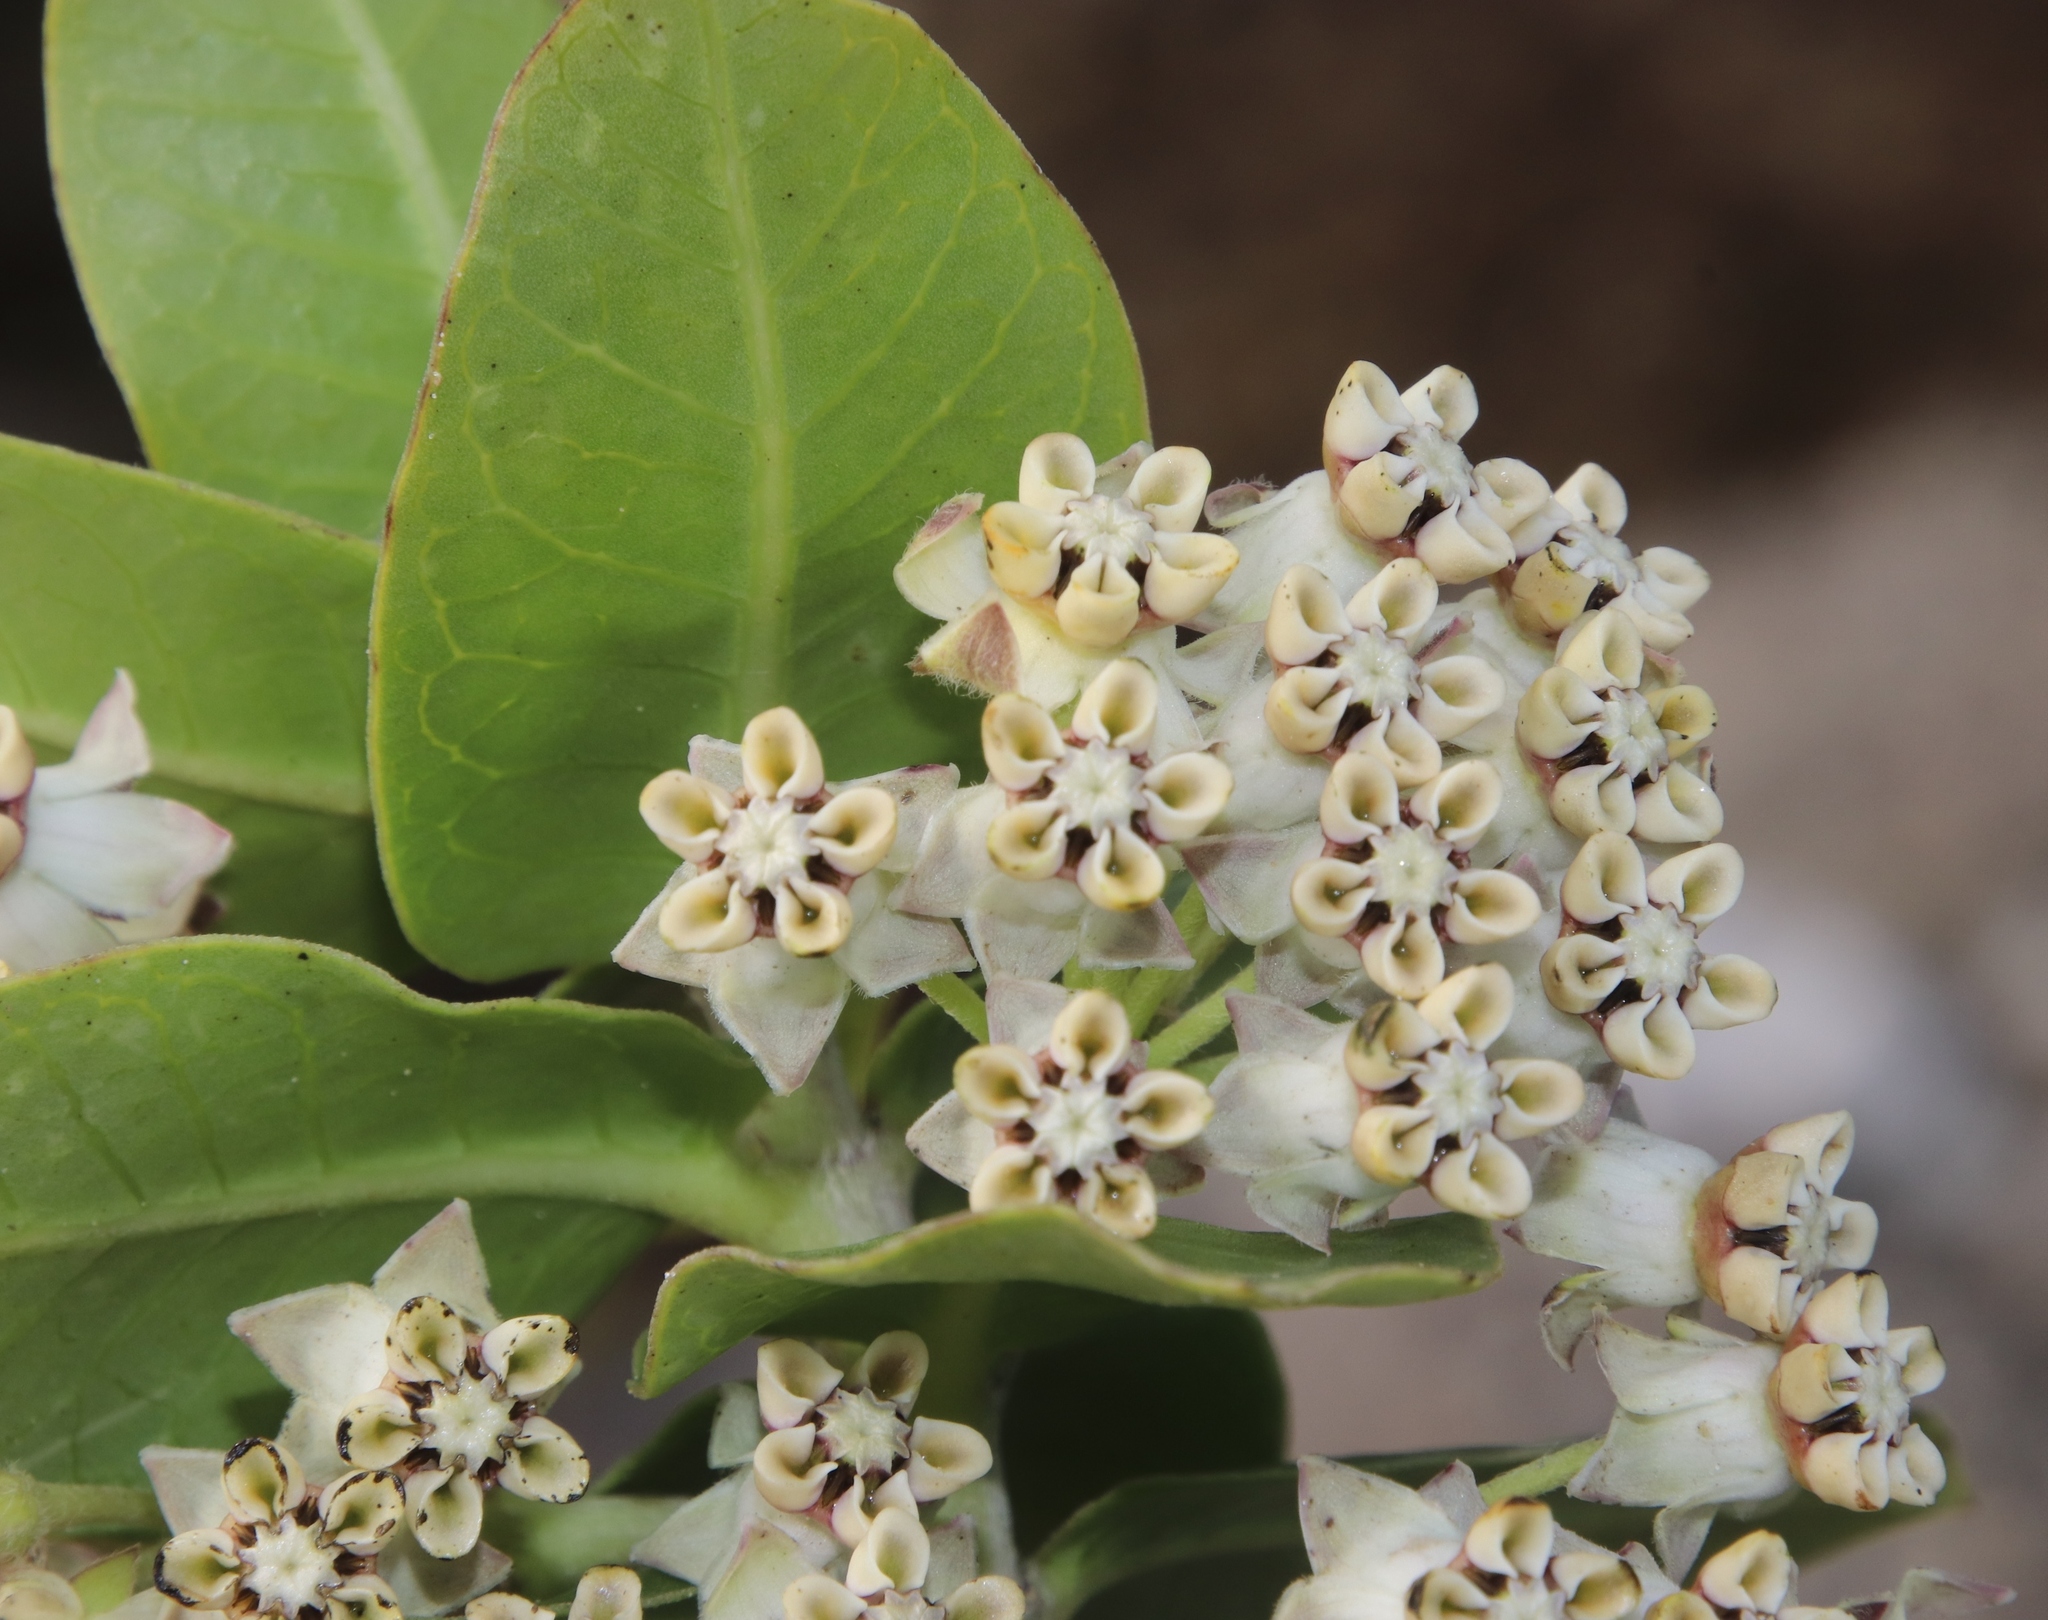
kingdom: Plantae
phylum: Tracheophyta
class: Magnoliopsida
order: Gentianales
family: Apocynaceae
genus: Gomphocarpus
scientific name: Gomphocarpus cancellatus
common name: Wild cotton
